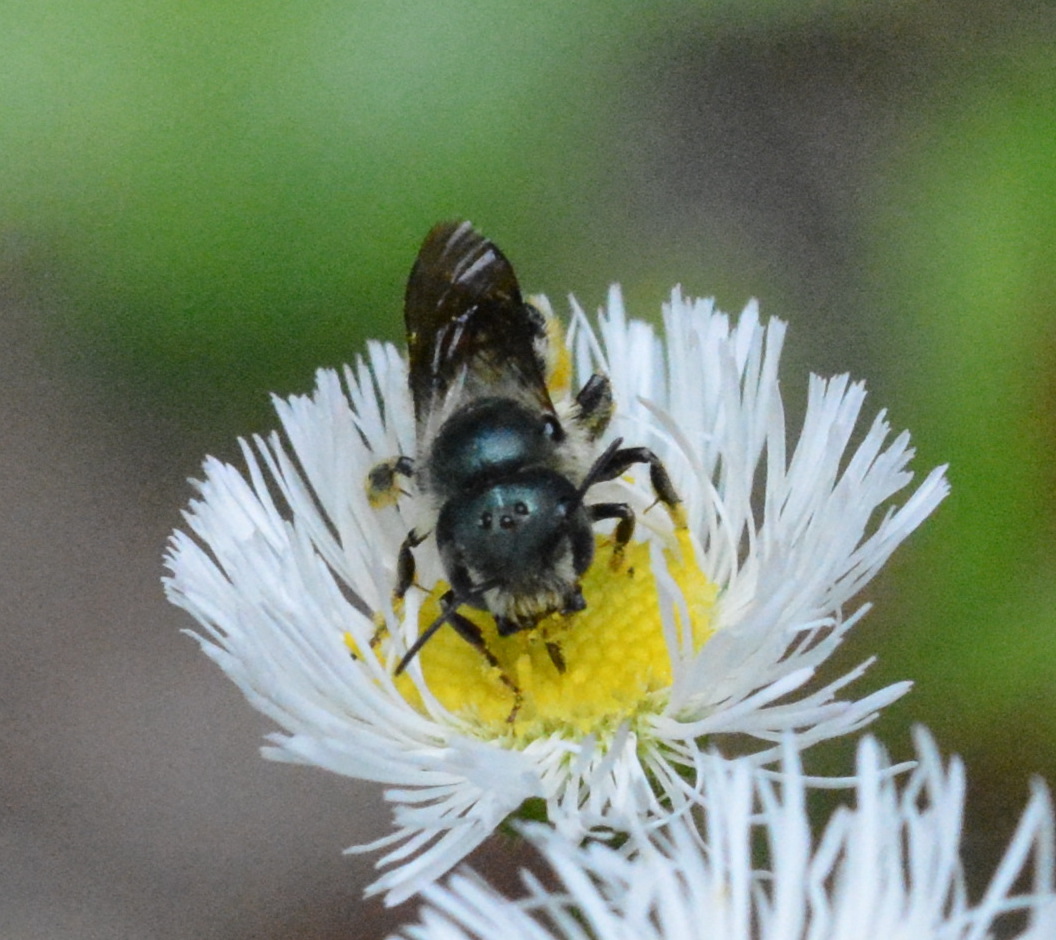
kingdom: Animalia
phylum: Arthropoda
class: Insecta
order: Hymenoptera
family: Megachilidae
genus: Osmia
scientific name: Osmia georgica
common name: Georgia mason
